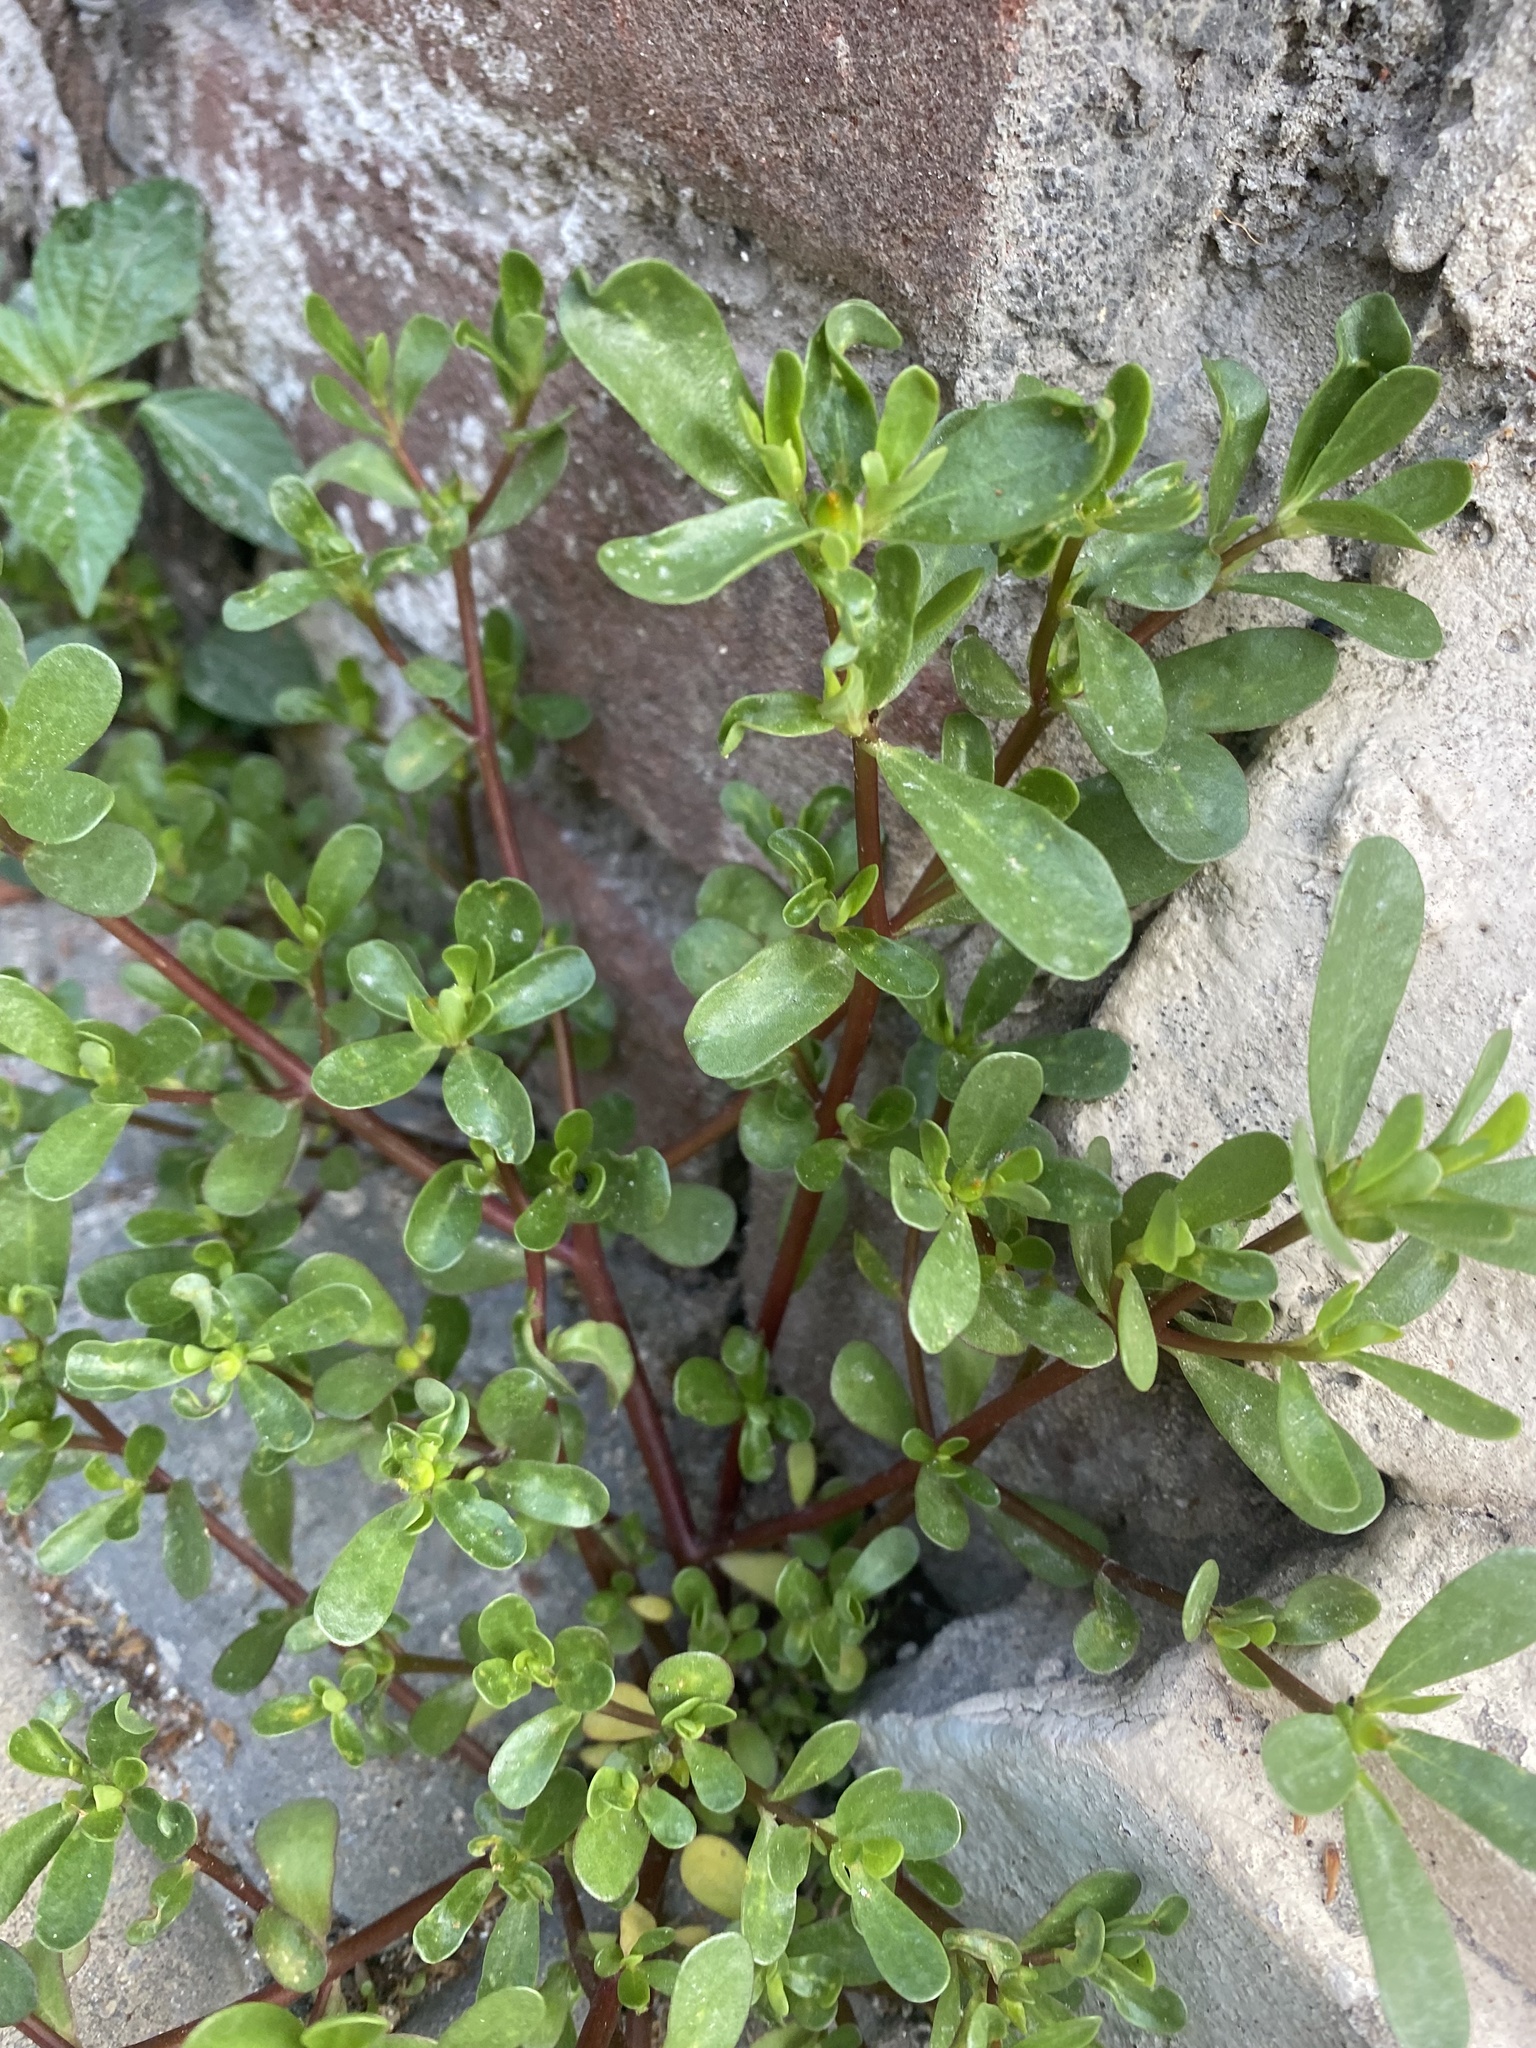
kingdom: Plantae
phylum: Tracheophyta
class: Magnoliopsida
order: Caryophyllales
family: Portulacaceae
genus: Portulaca
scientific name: Portulaca oleracea
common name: Common purslane
